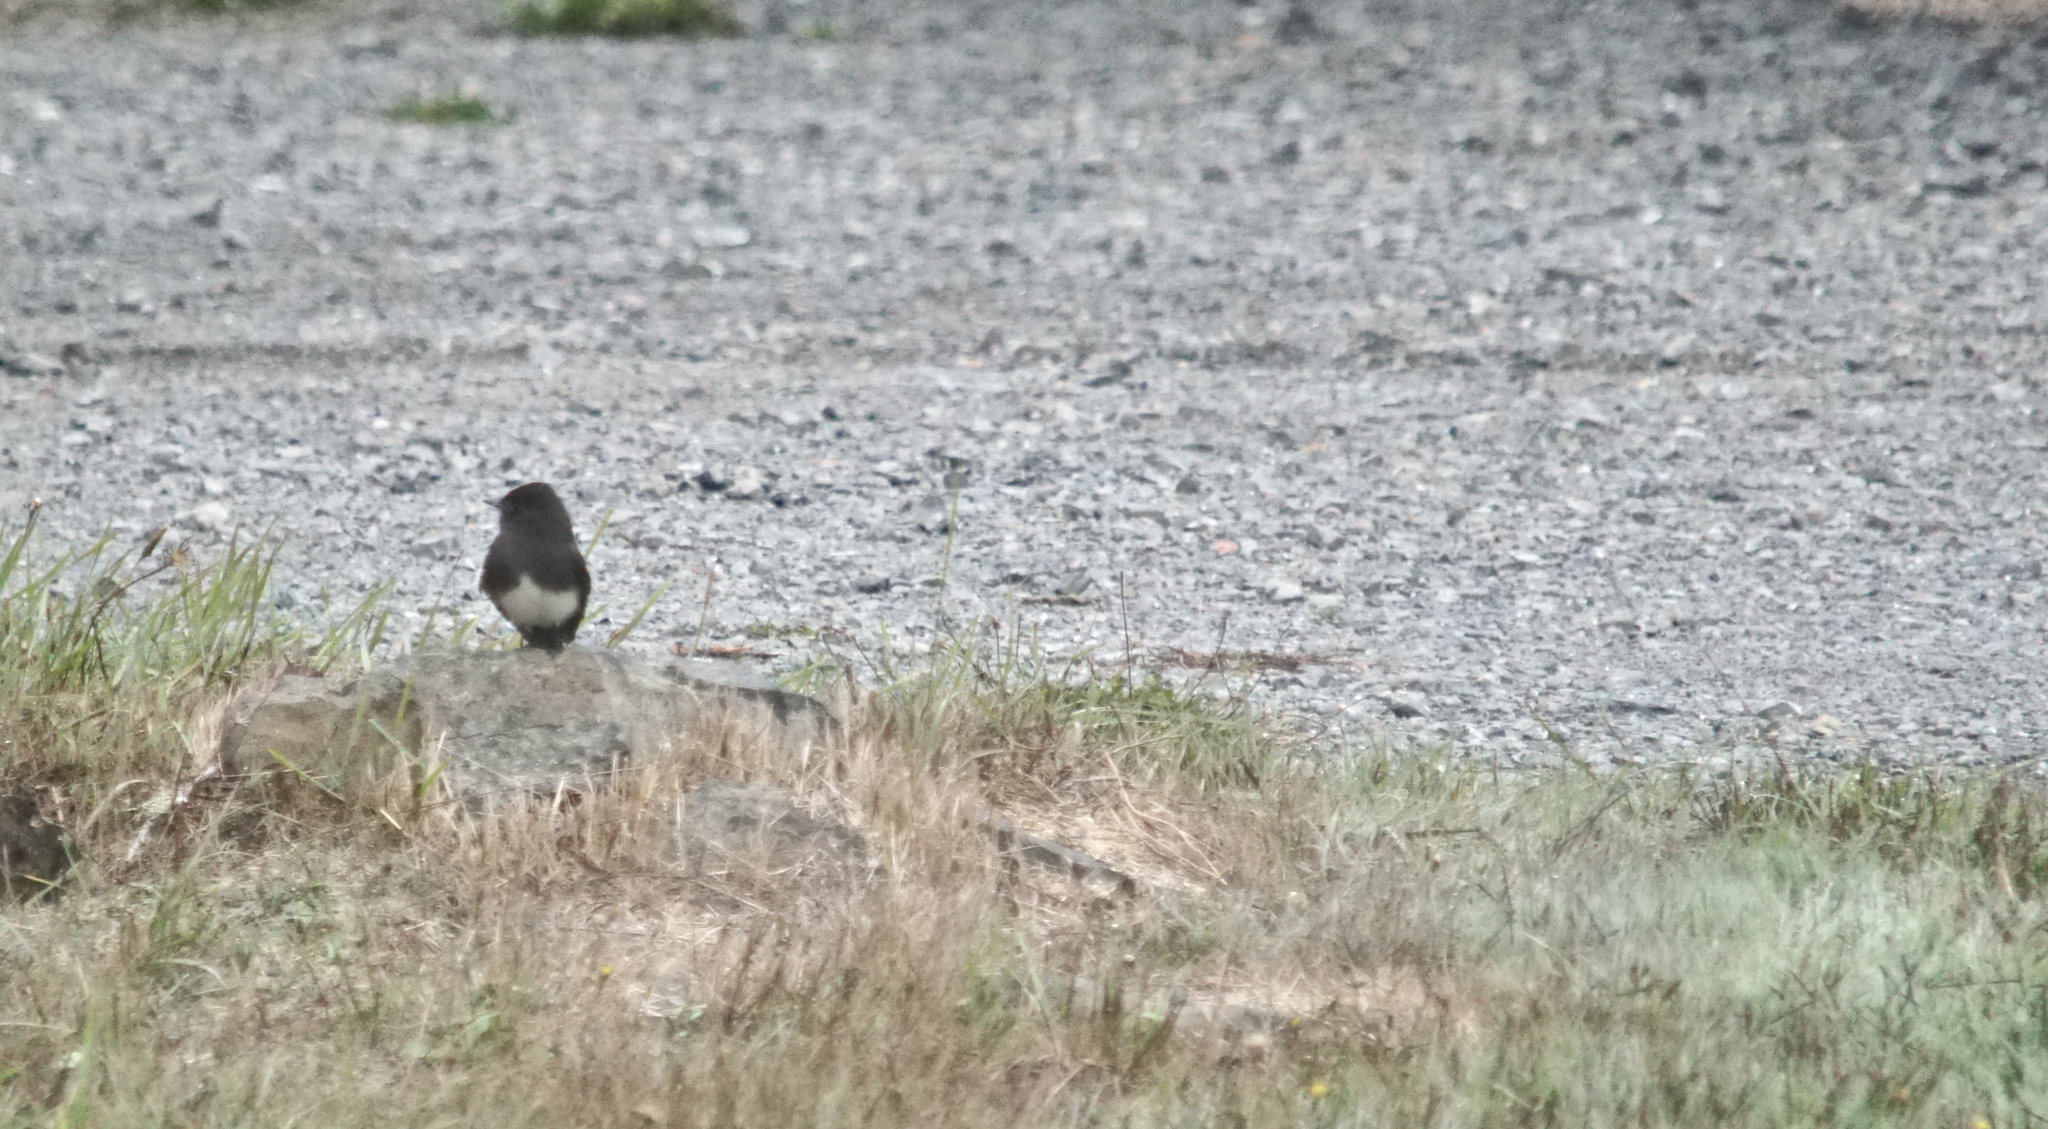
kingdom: Animalia
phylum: Chordata
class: Aves
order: Passeriformes
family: Tyrannidae
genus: Sayornis
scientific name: Sayornis nigricans
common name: Black phoebe
